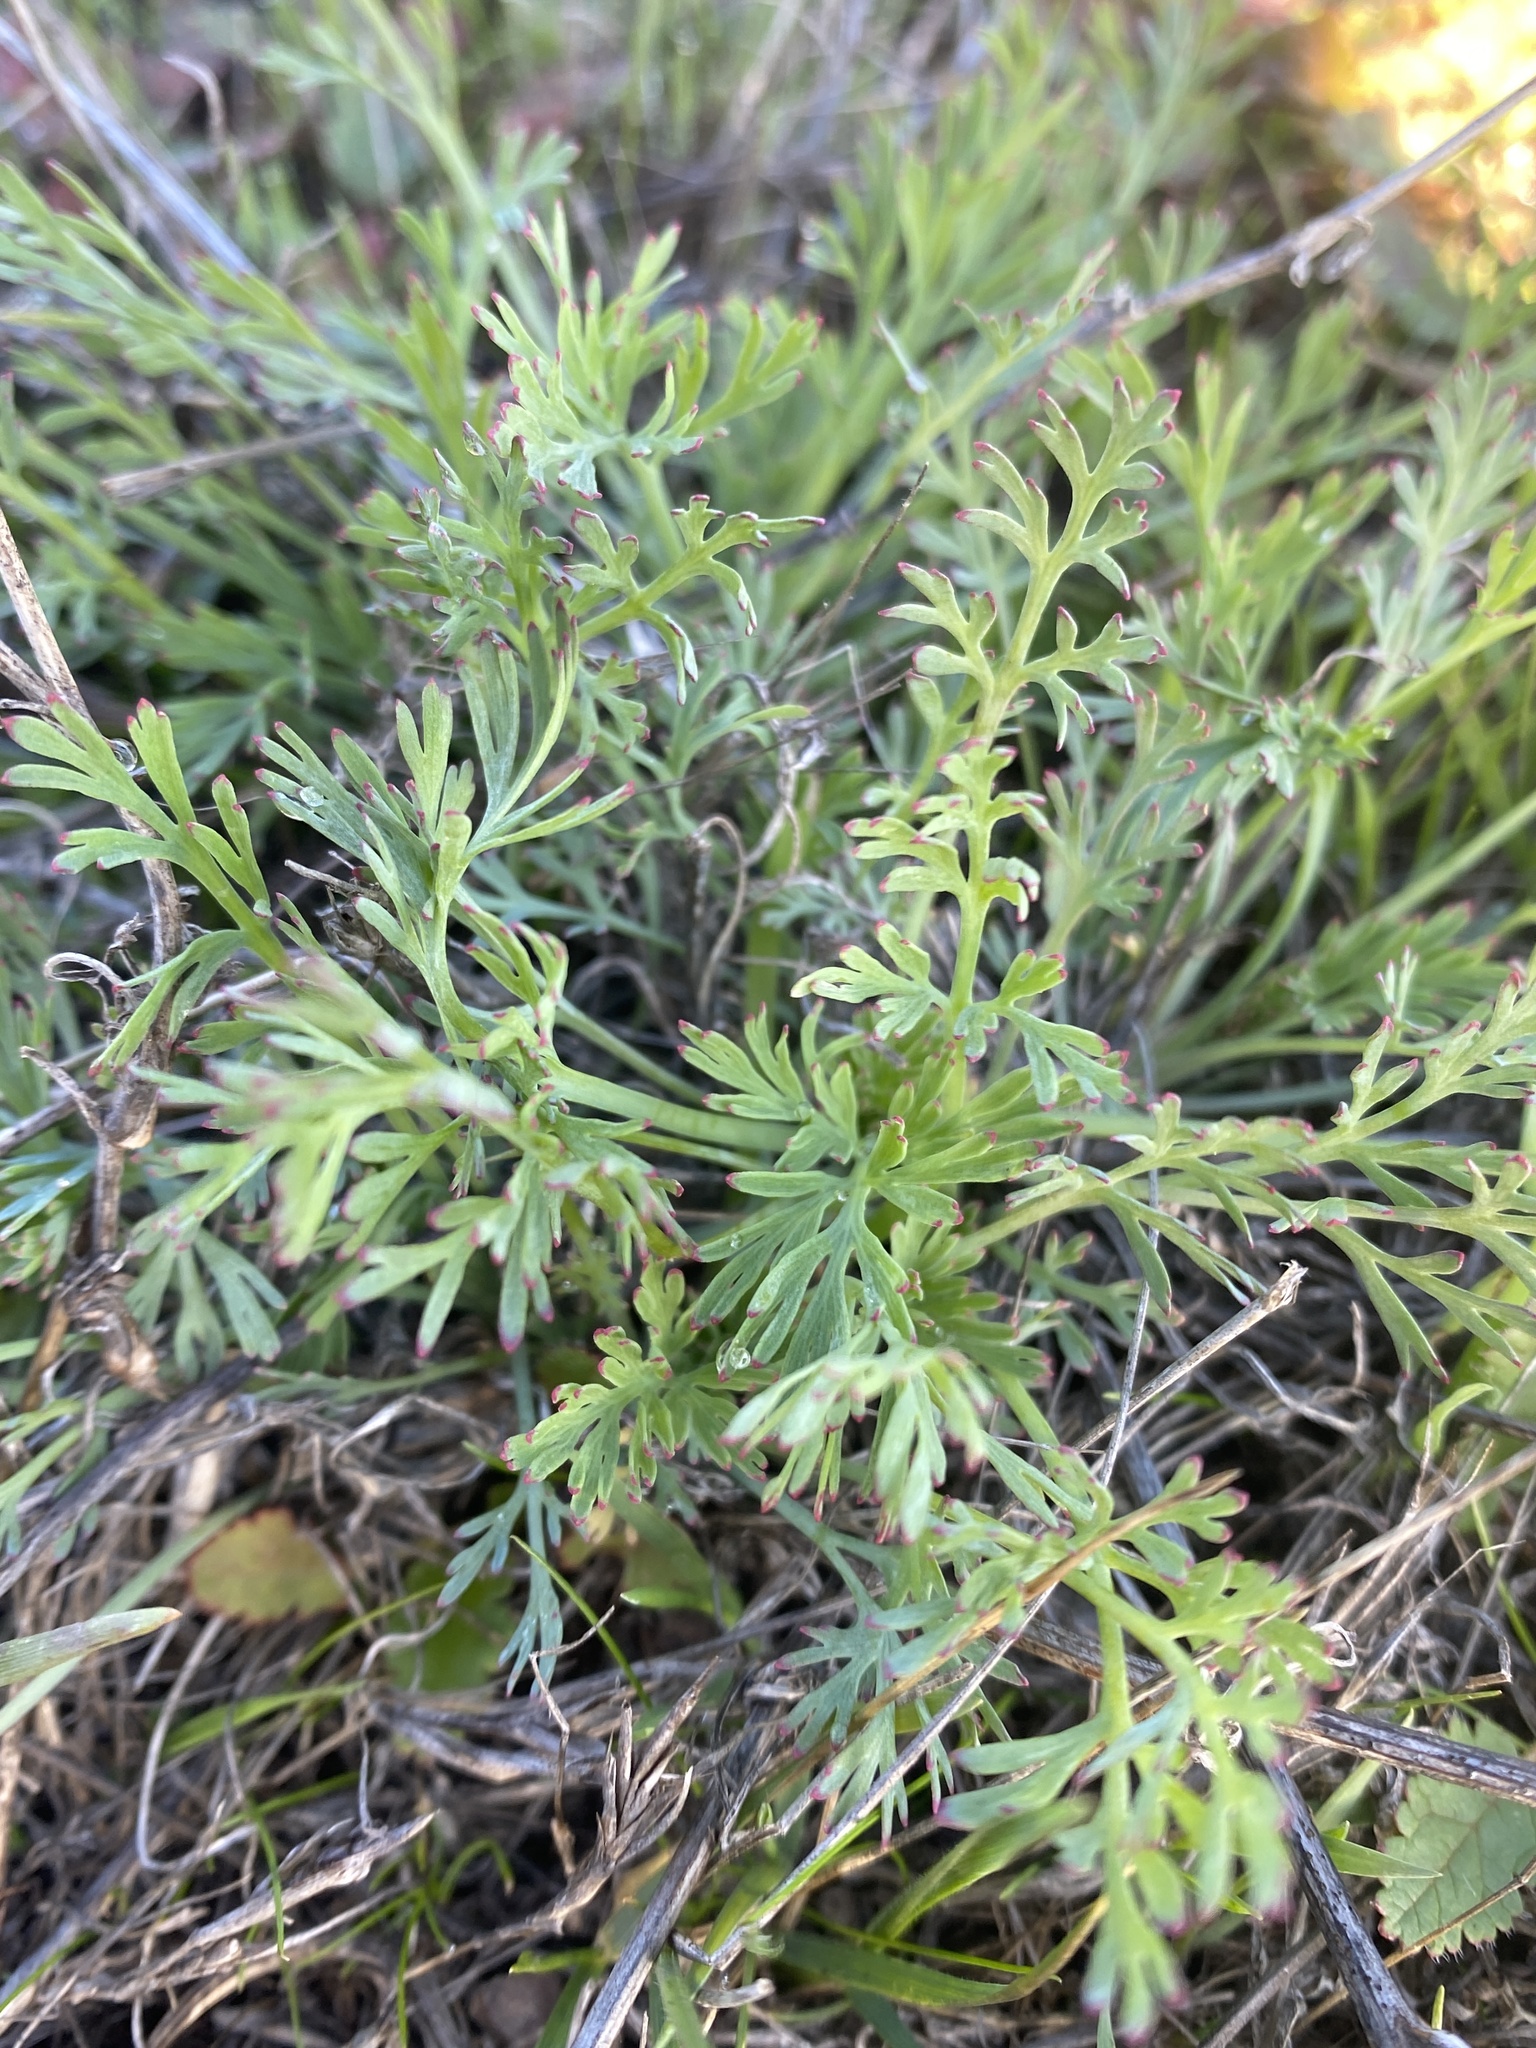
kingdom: Plantae
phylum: Tracheophyta
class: Magnoliopsida
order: Ranunculales
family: Papaveraceae
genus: Eschscholzia
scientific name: Eschscholzia californica
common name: California poppy
